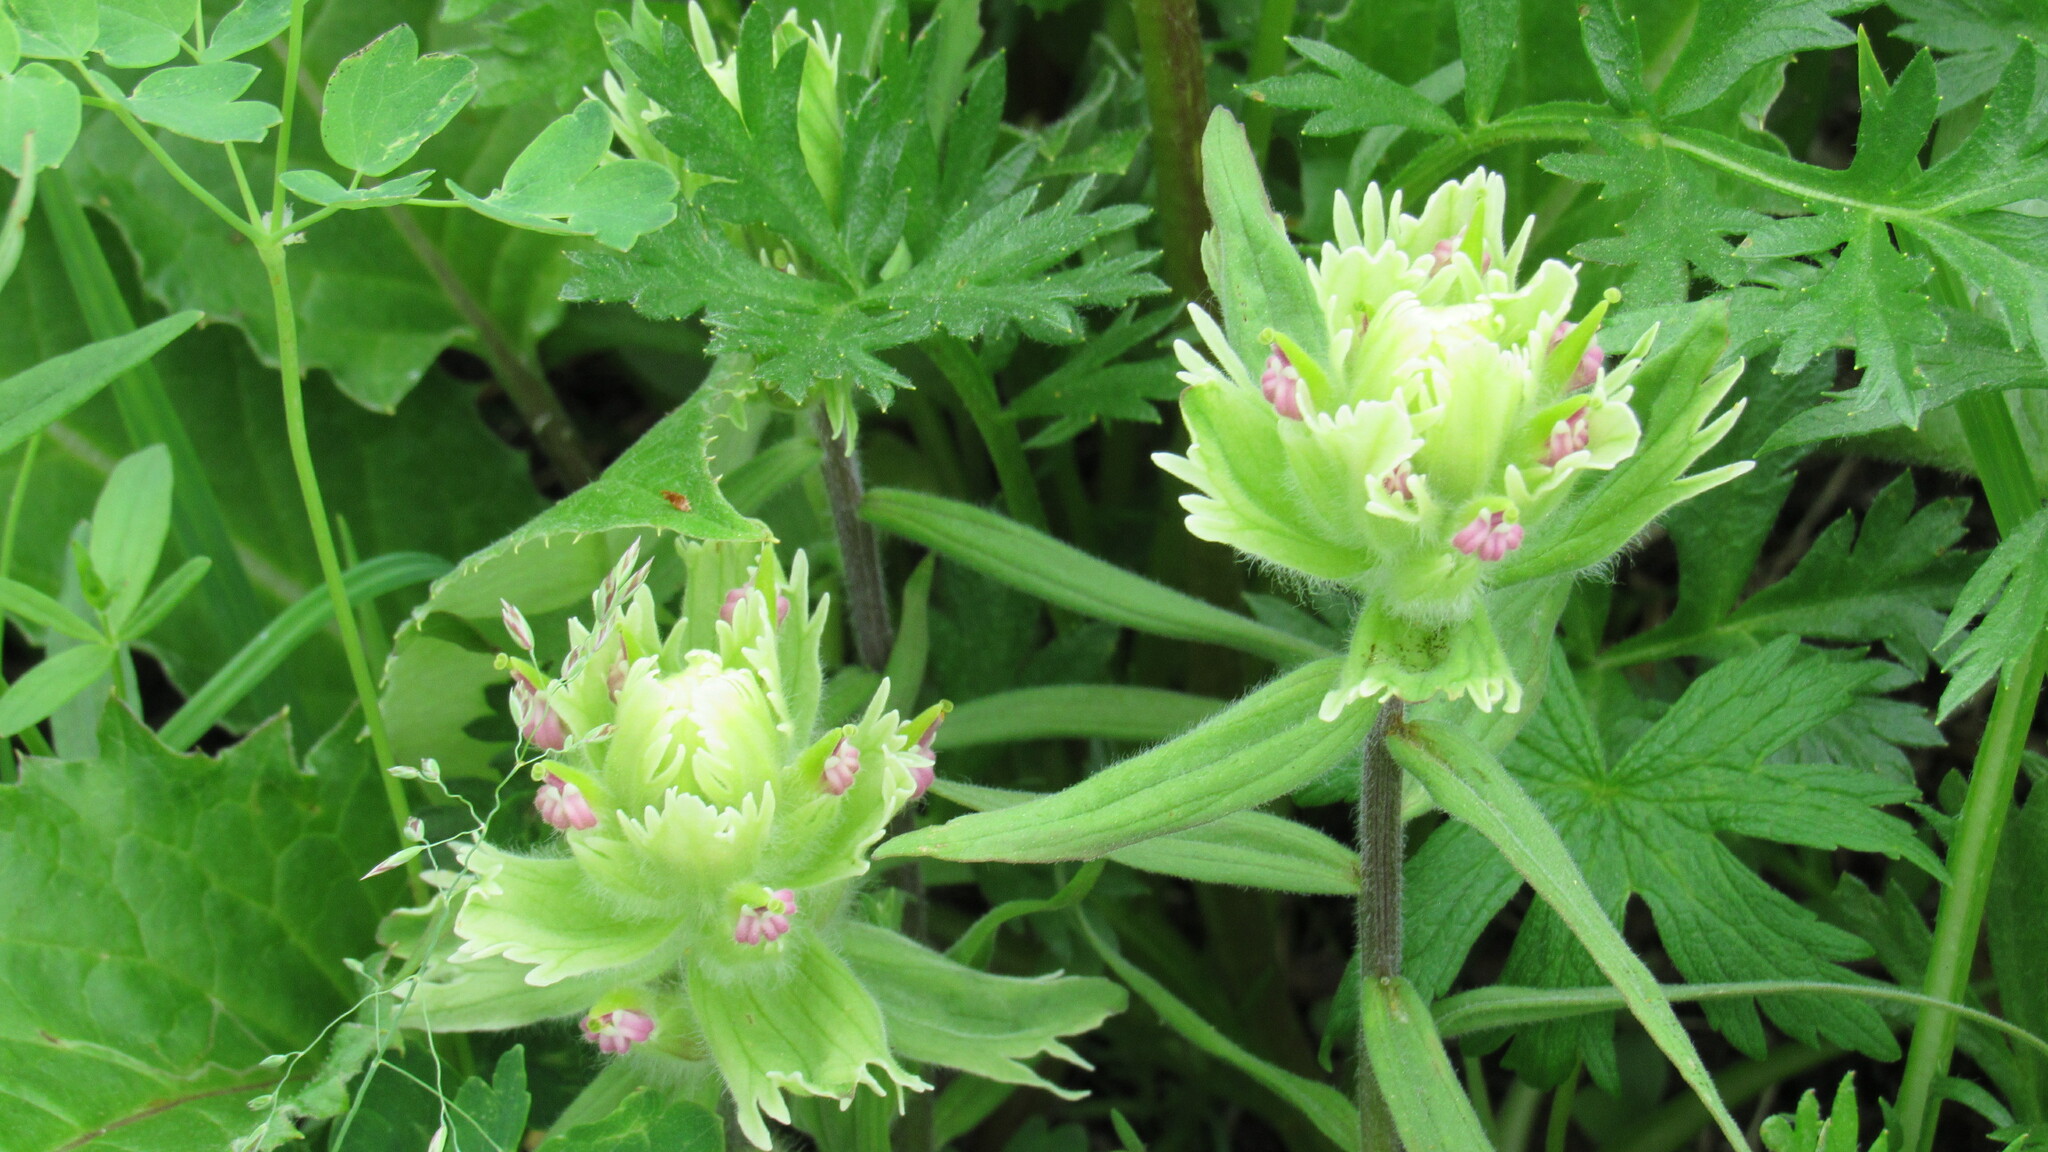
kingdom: Plantae
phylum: Tracheophyta
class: Magnoliopsida
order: Lamiales
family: Orobanchaceae
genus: Castilleja
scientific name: Castilleja pallida
